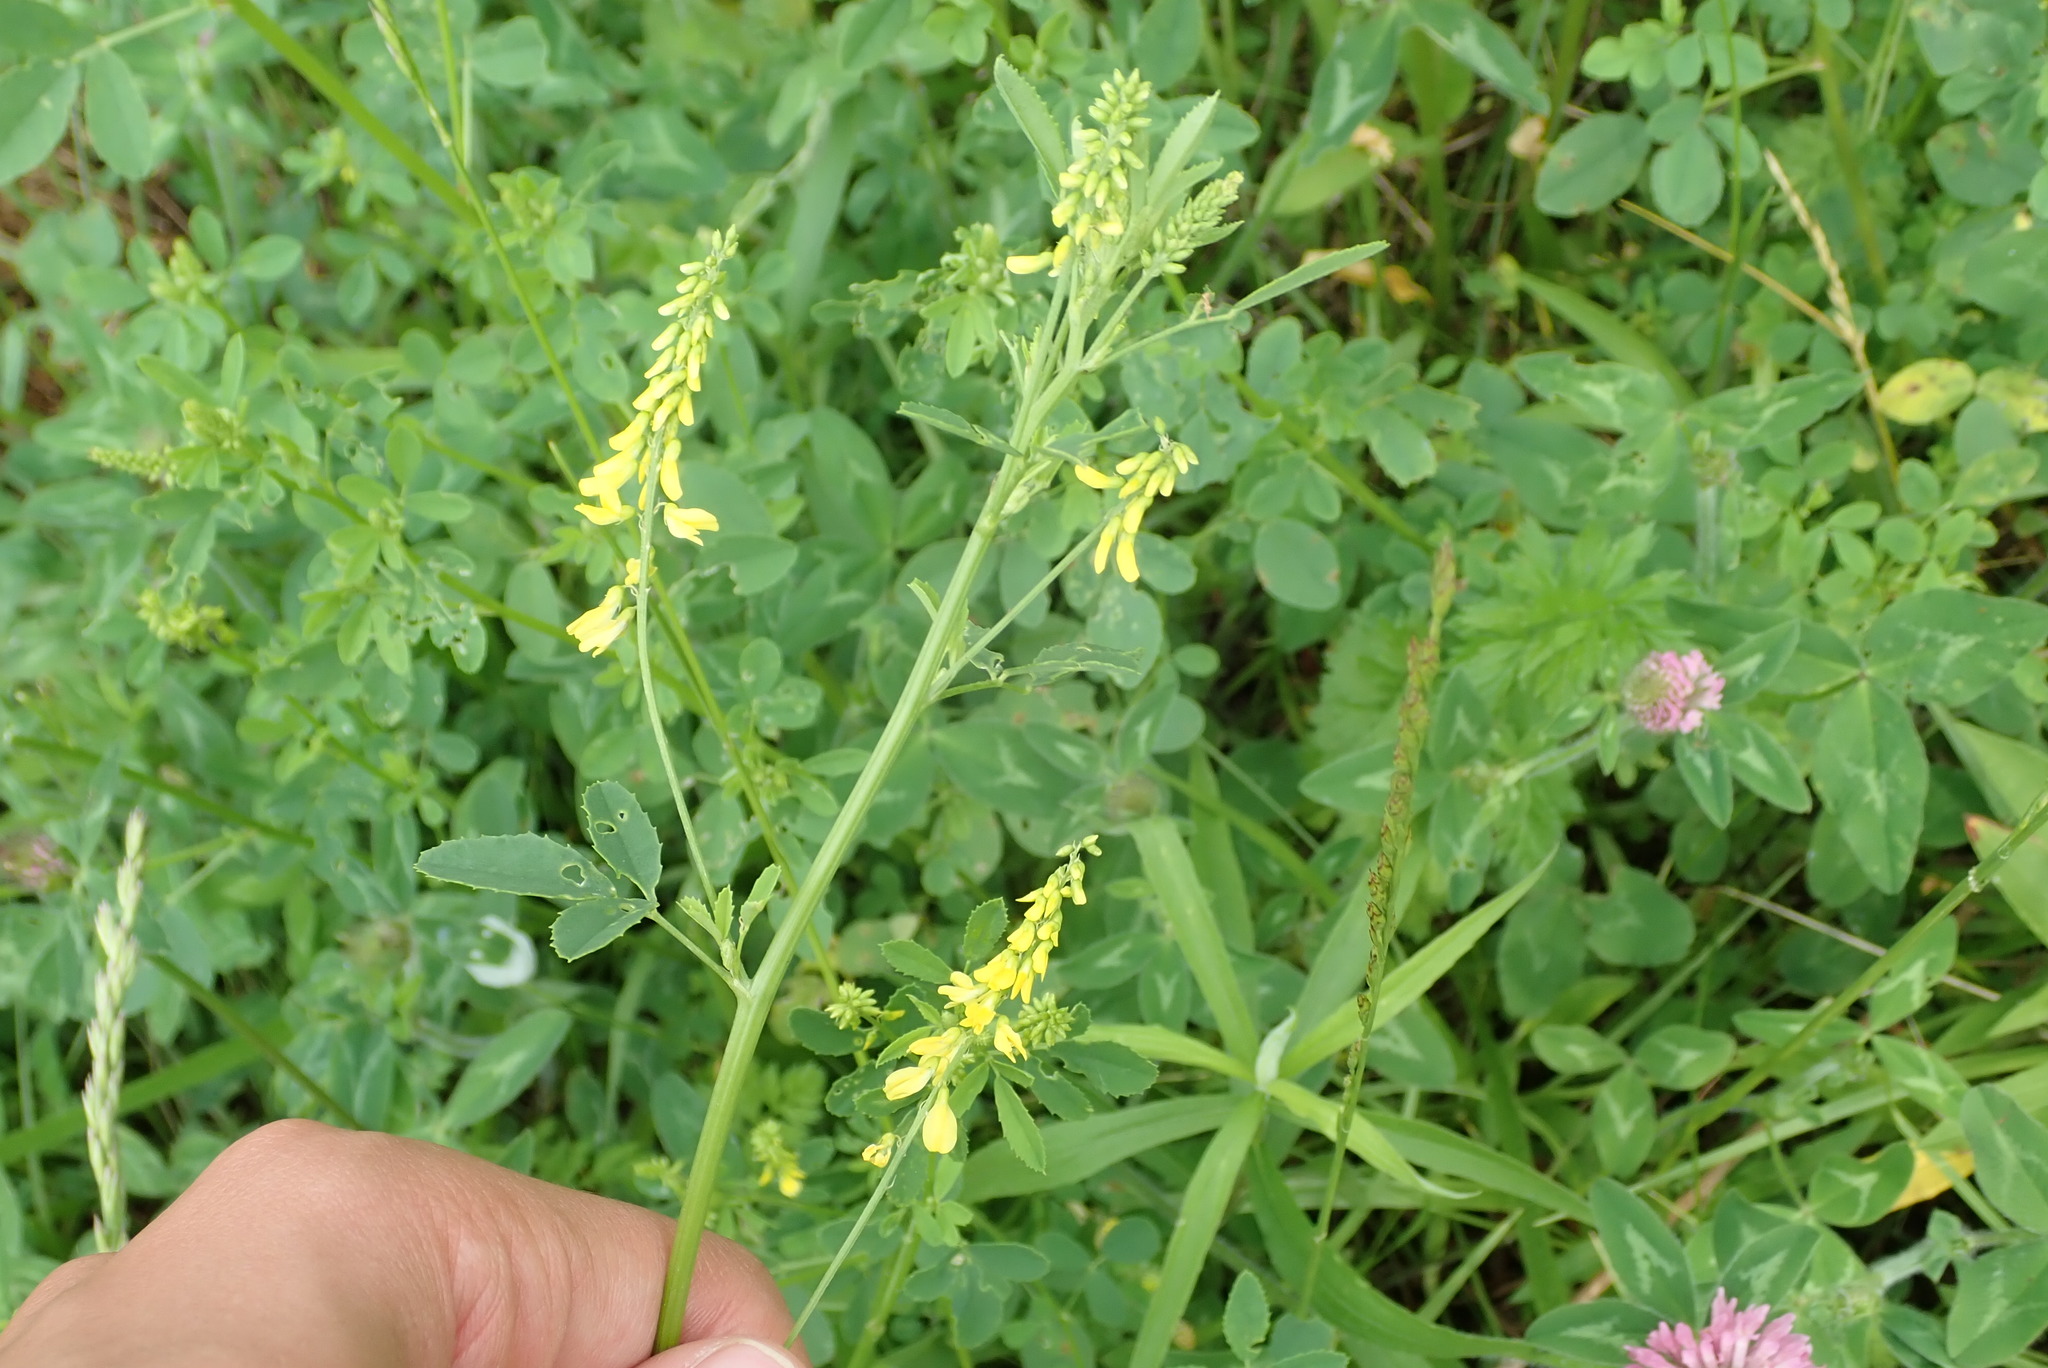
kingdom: Plantae
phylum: Tracheophyta
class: Magnoliopsida
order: Fabales
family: Fabaceae
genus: Melilotus
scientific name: Melilotus officinalis
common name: Sweetclover
